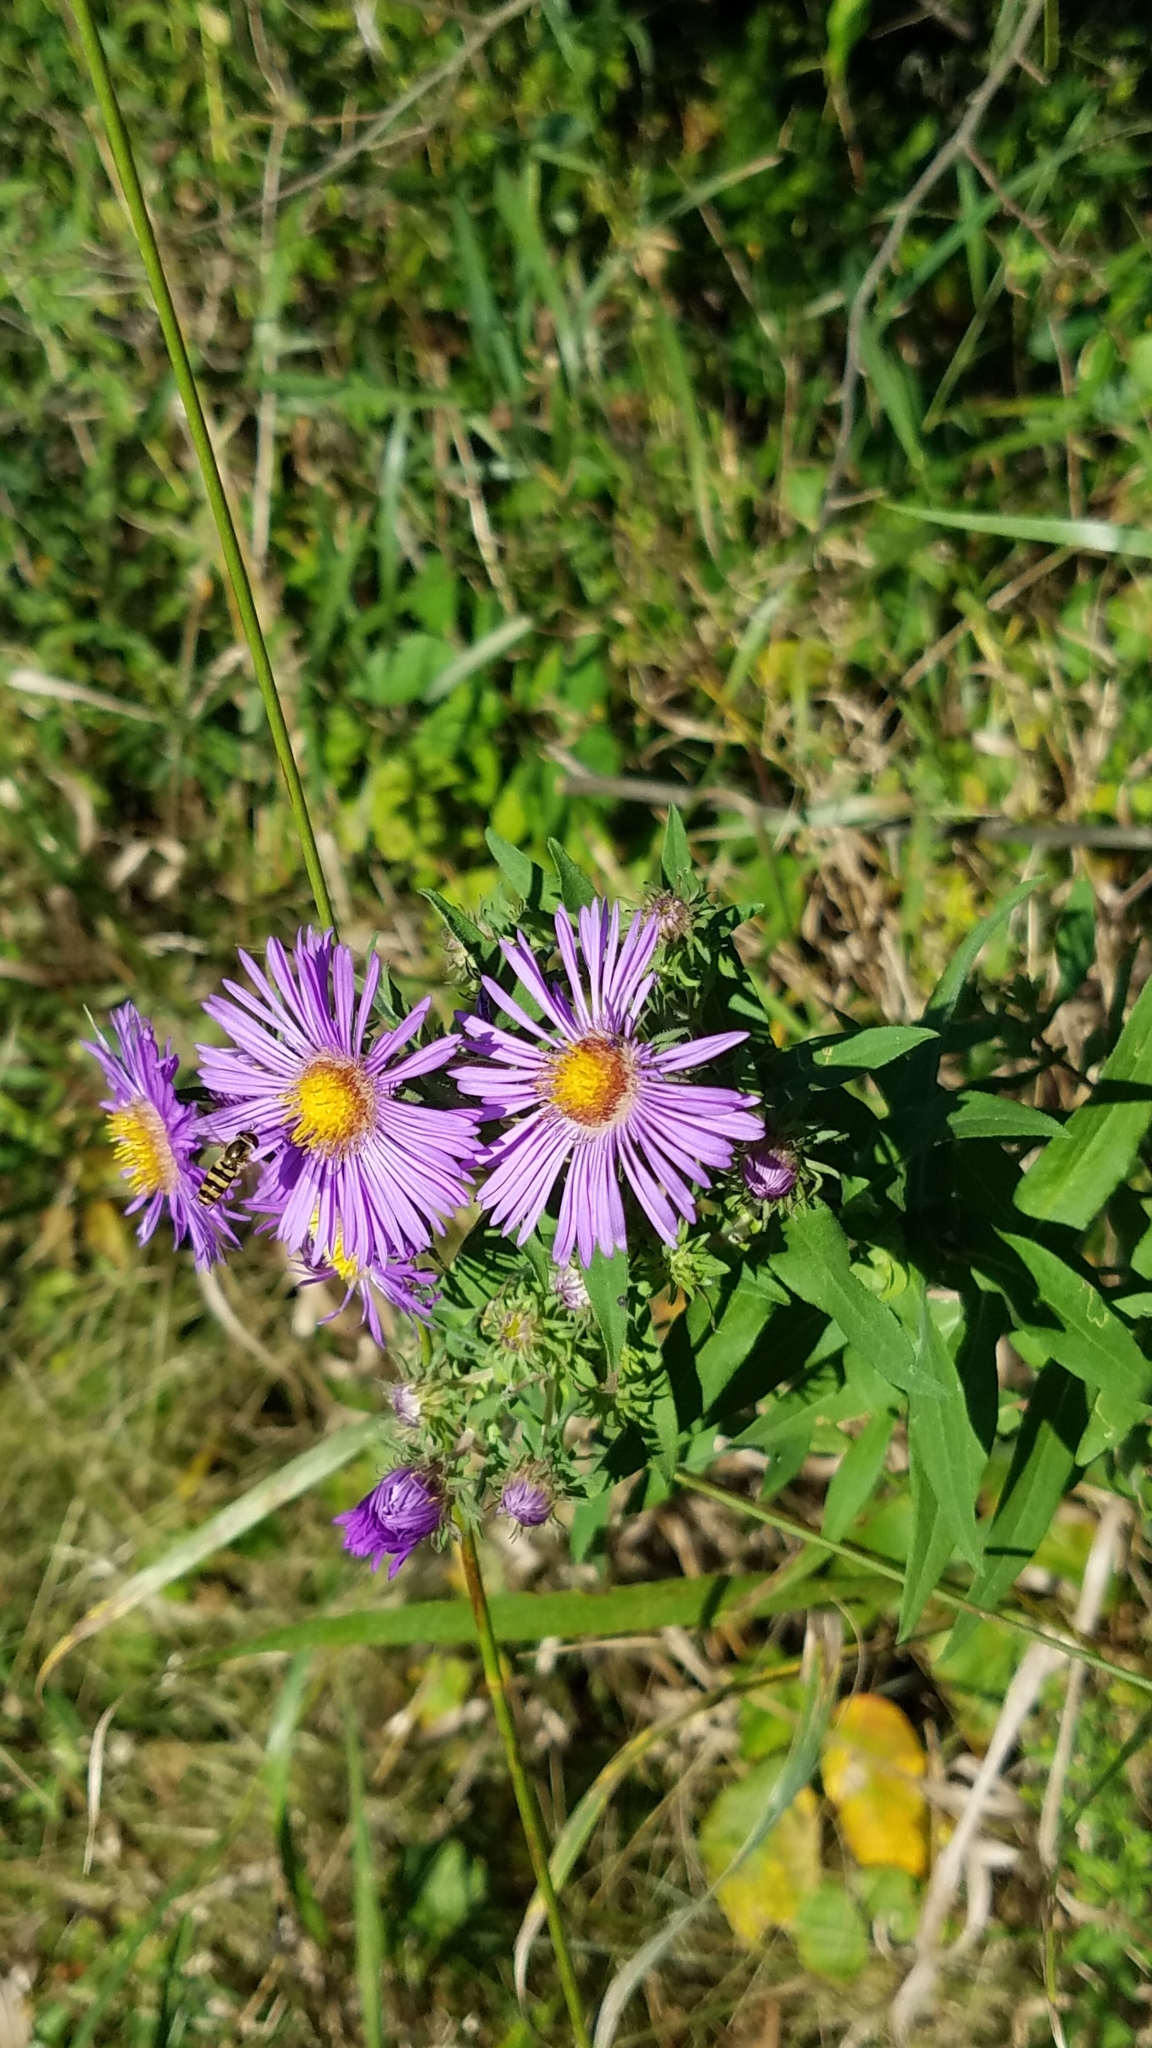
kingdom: Plantae
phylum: Tracheophyta
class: Magnoliopsida
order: Asterales
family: Asteraceae
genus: Symphyotrichum
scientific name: Symphyotrichum novae-angliae
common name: Michaelmas daisy
